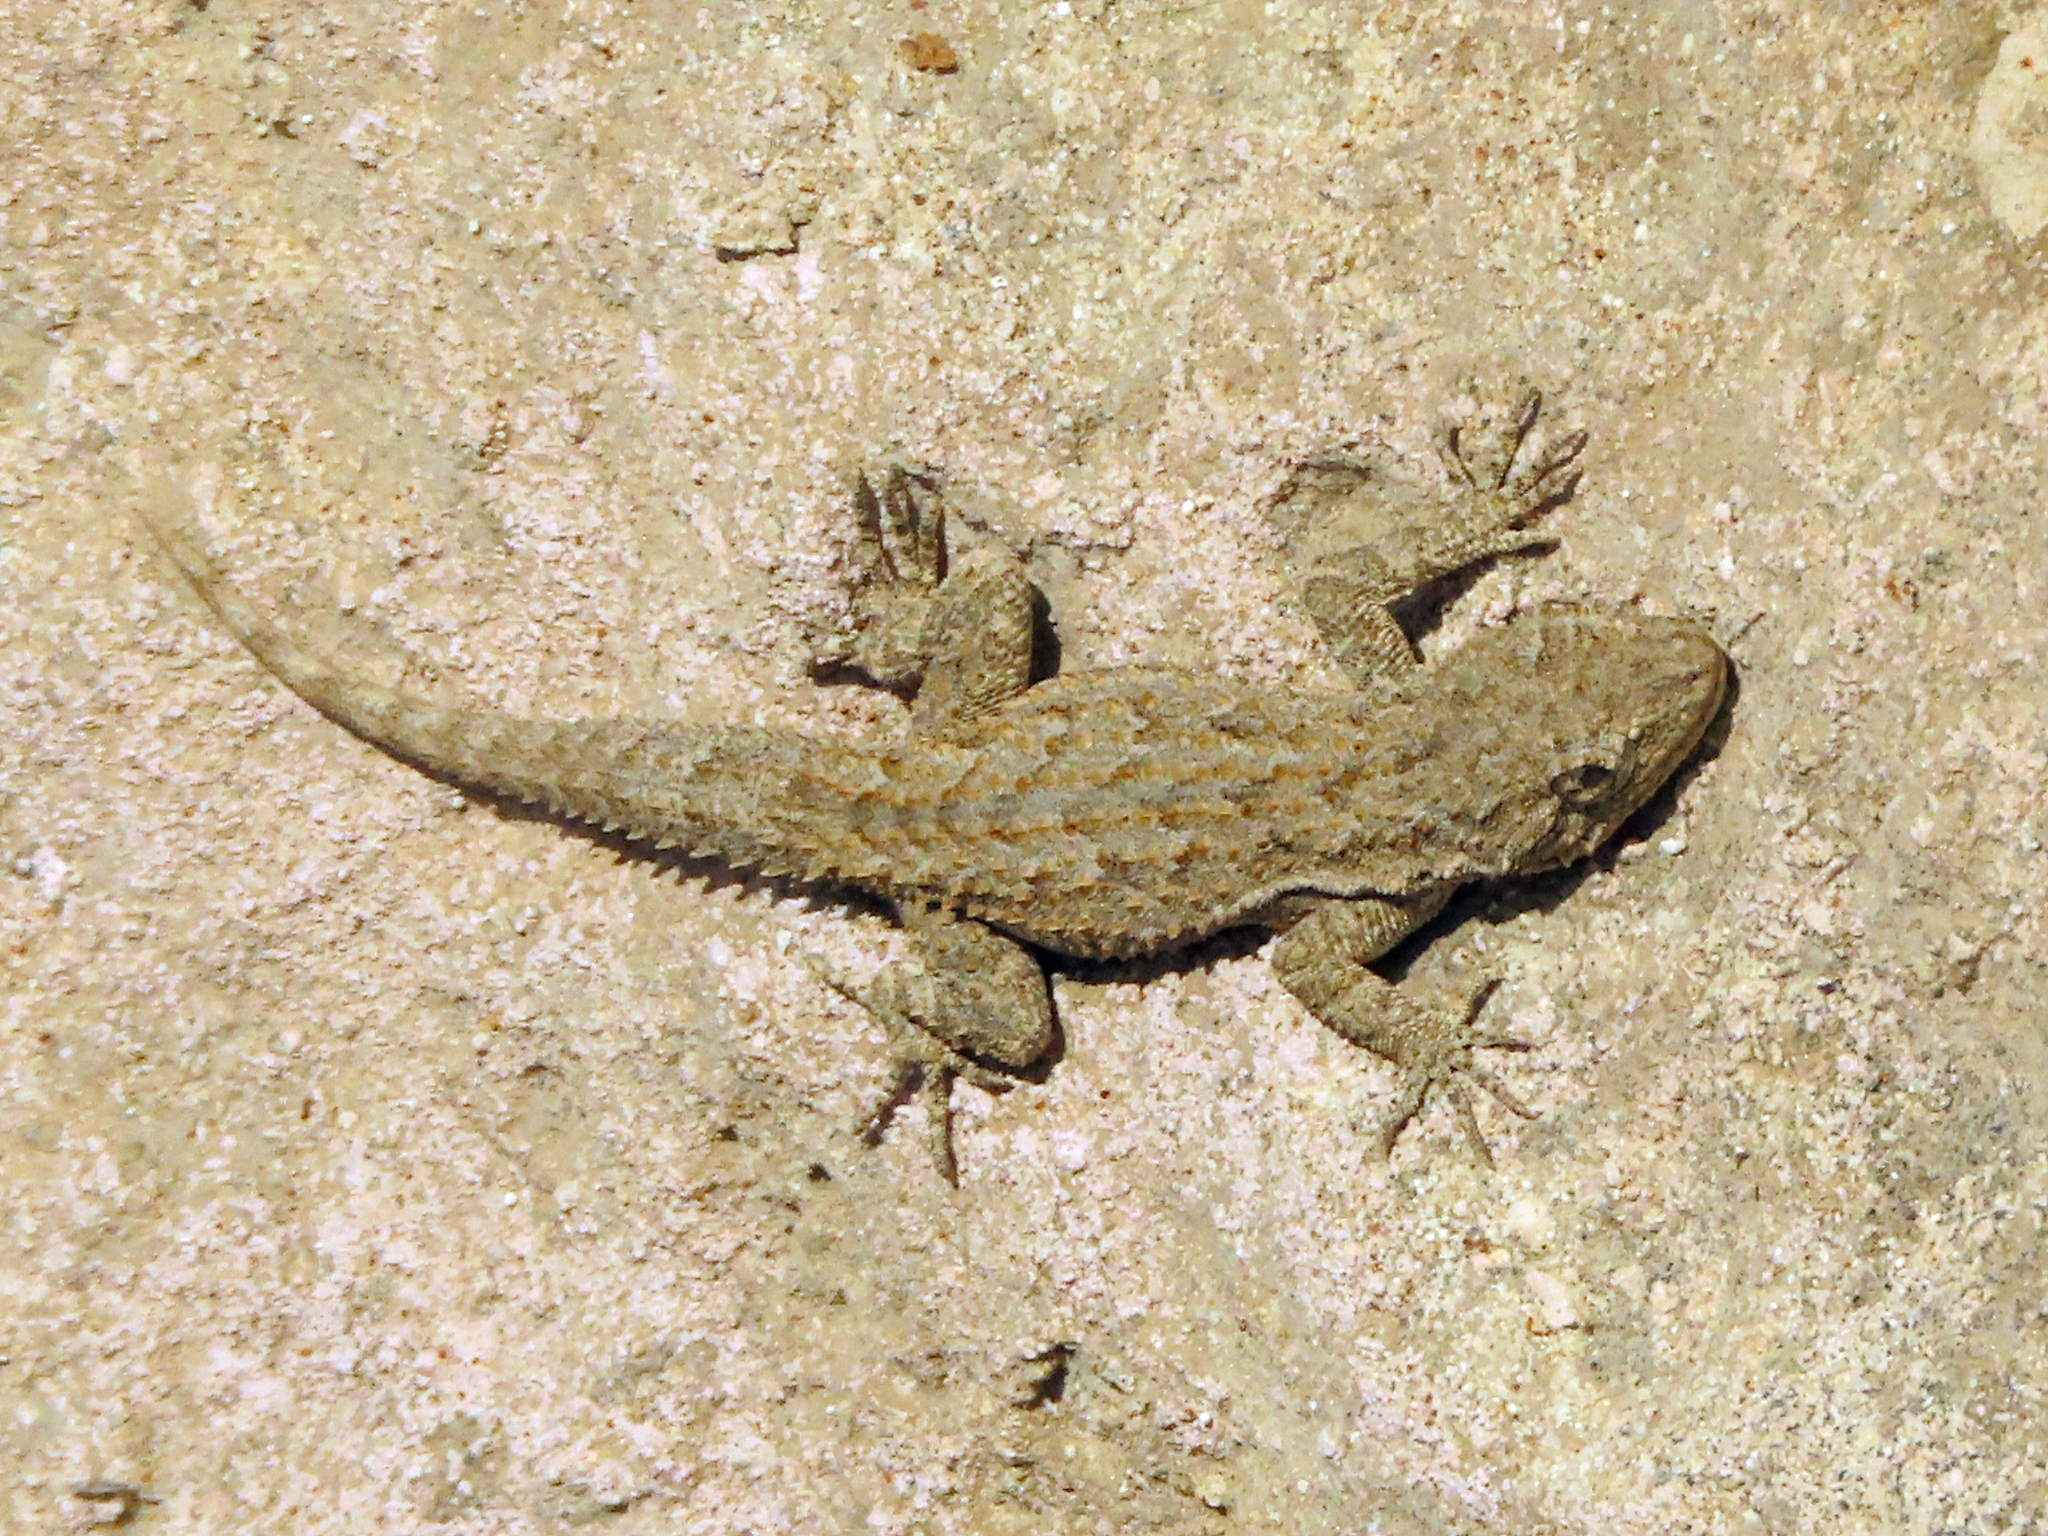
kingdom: Animalia
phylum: Chordata
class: Squamata
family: Gekkonidae
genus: Mediodactylus
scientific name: Mediodactylus russowii
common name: Grey thin-toed gecko
